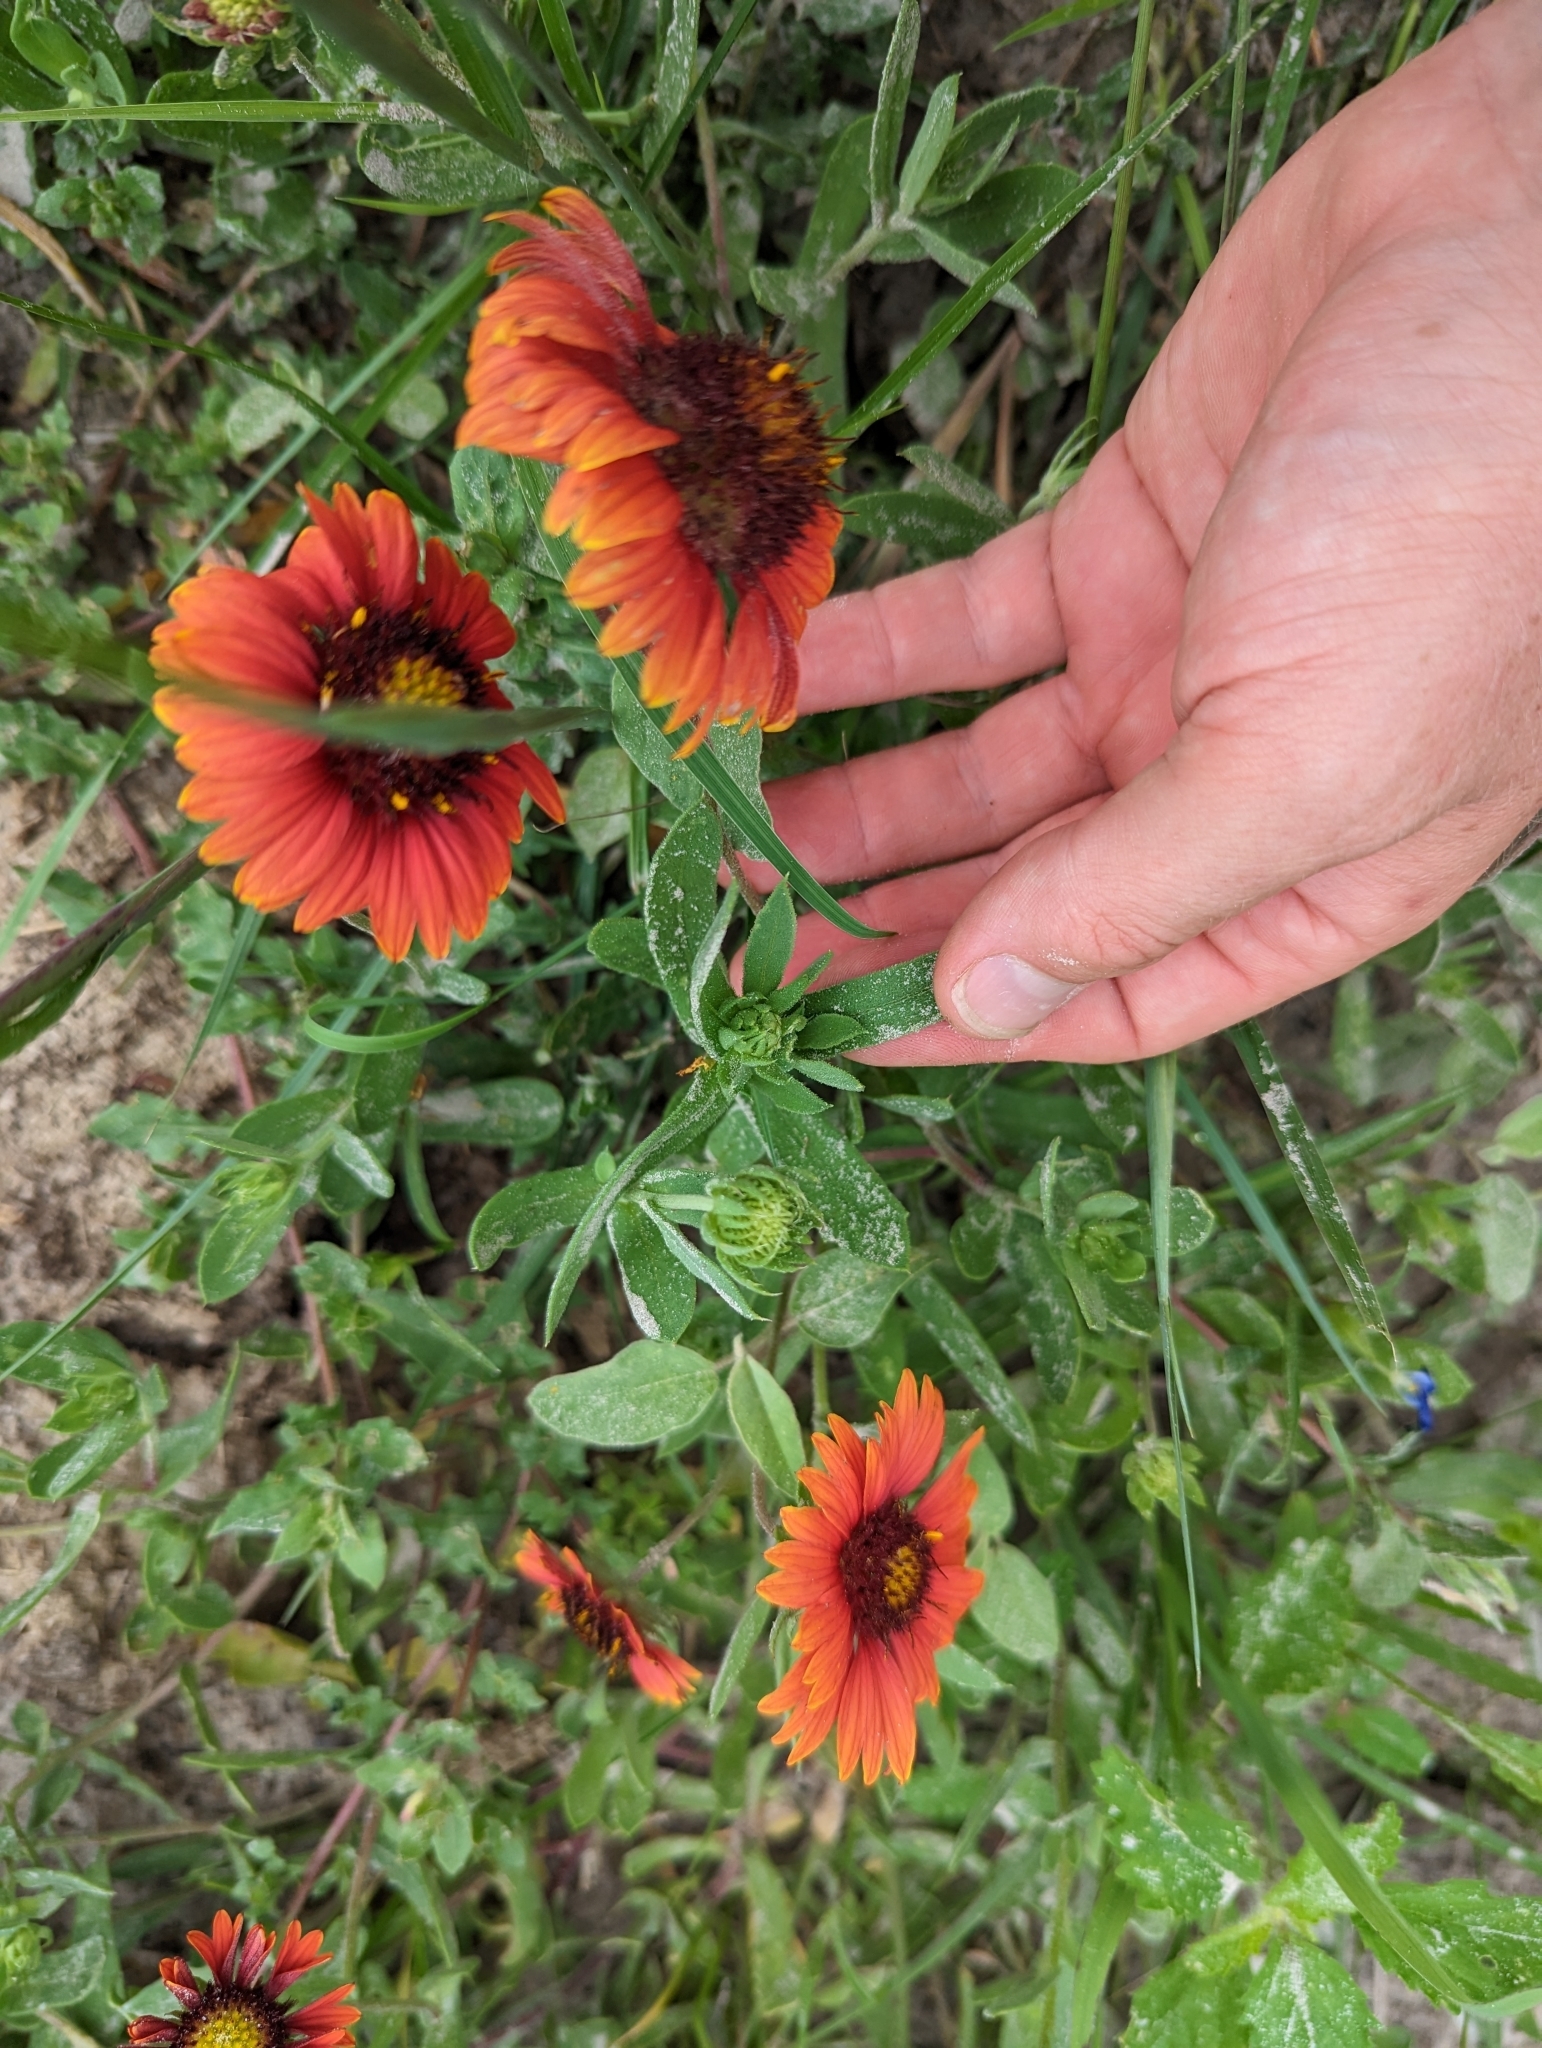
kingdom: Plantae
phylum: Tracheophyta
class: Magnoliopsida
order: Asterales
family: Asteraceae
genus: Gaillardia
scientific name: Gaillardia amblyodon
